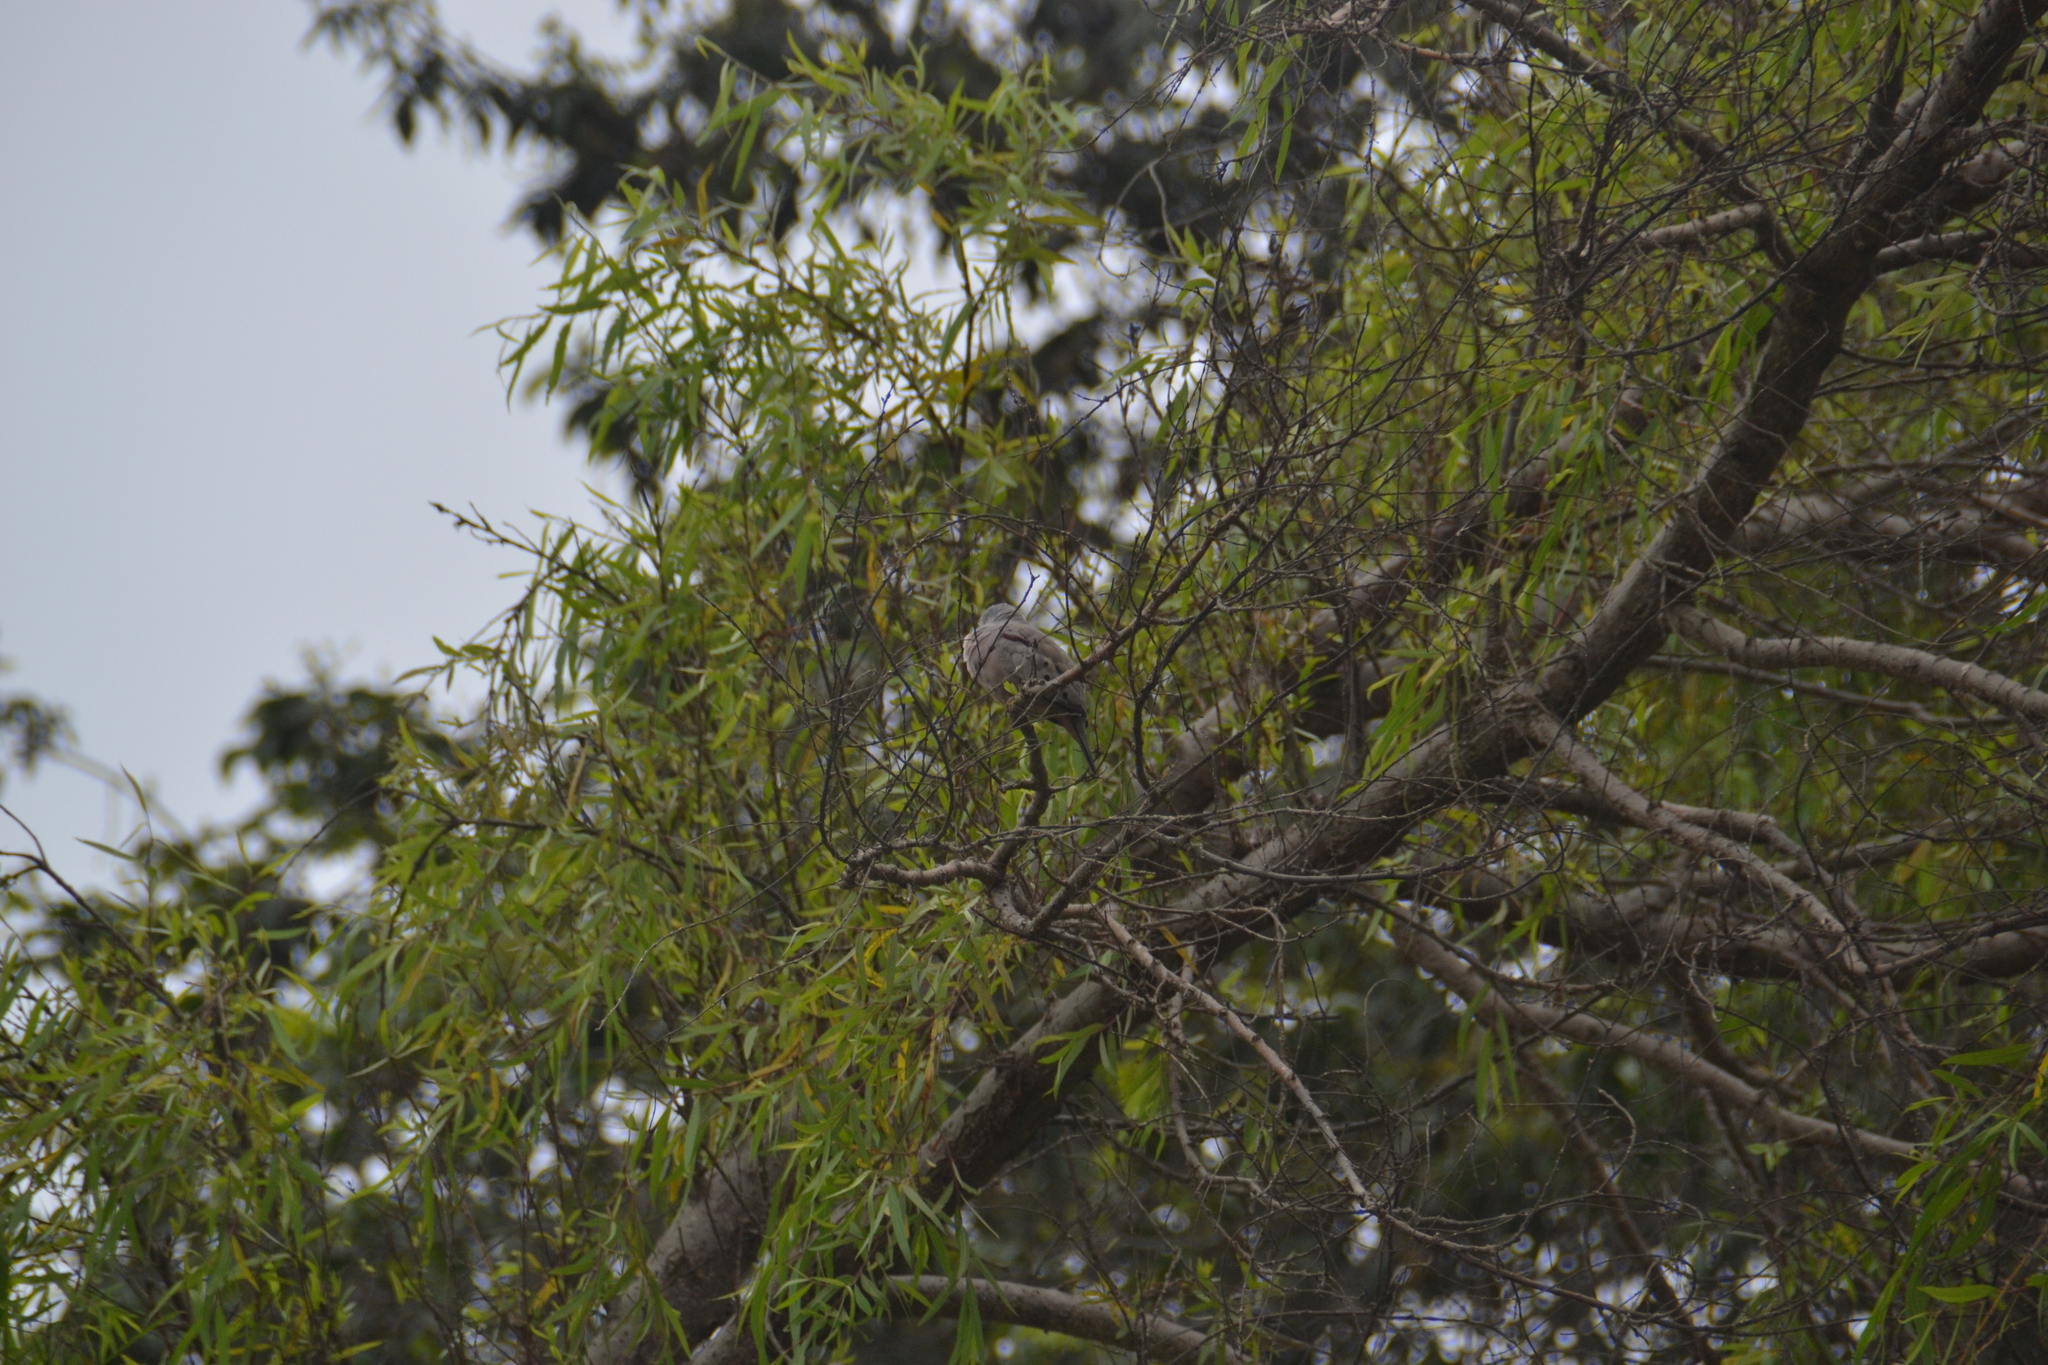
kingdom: Animalia
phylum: Chordata
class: Aves
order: Columbiformes
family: Columbidae
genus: Columbina
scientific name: Columbina cruziana
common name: Croaking ground dove
